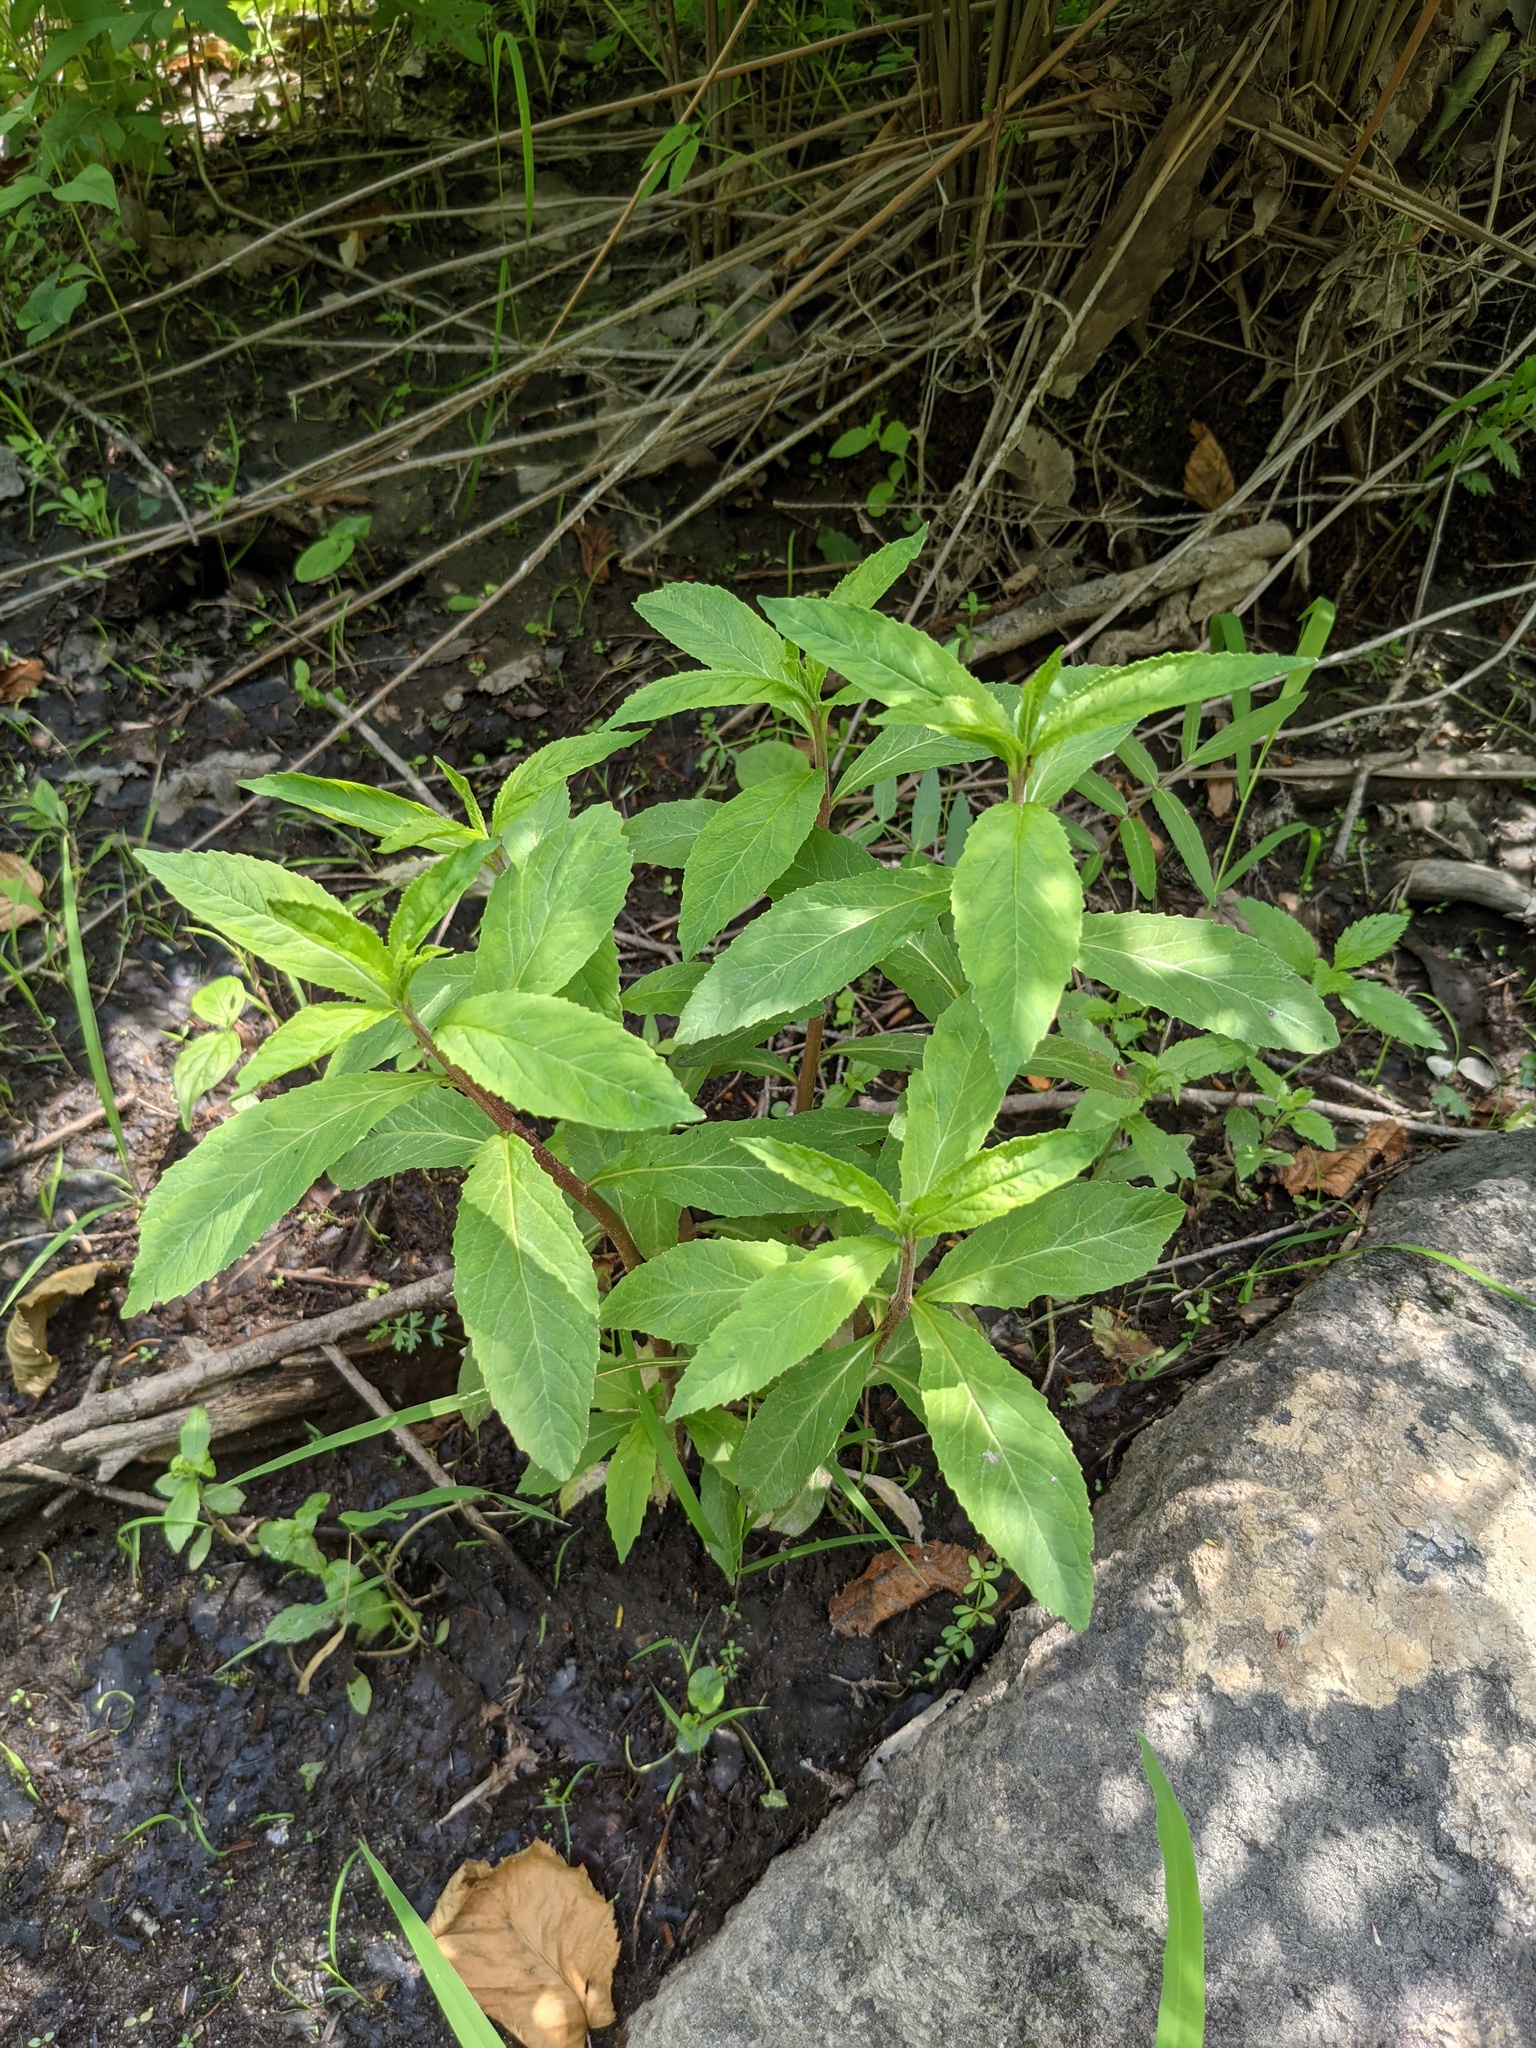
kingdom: Plantae
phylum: Tracheophyta
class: Magnoliopsida
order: Asterales
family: Campanulaceae
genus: Lobelia
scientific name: Lobelia cardinalis
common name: Cardinal flower
